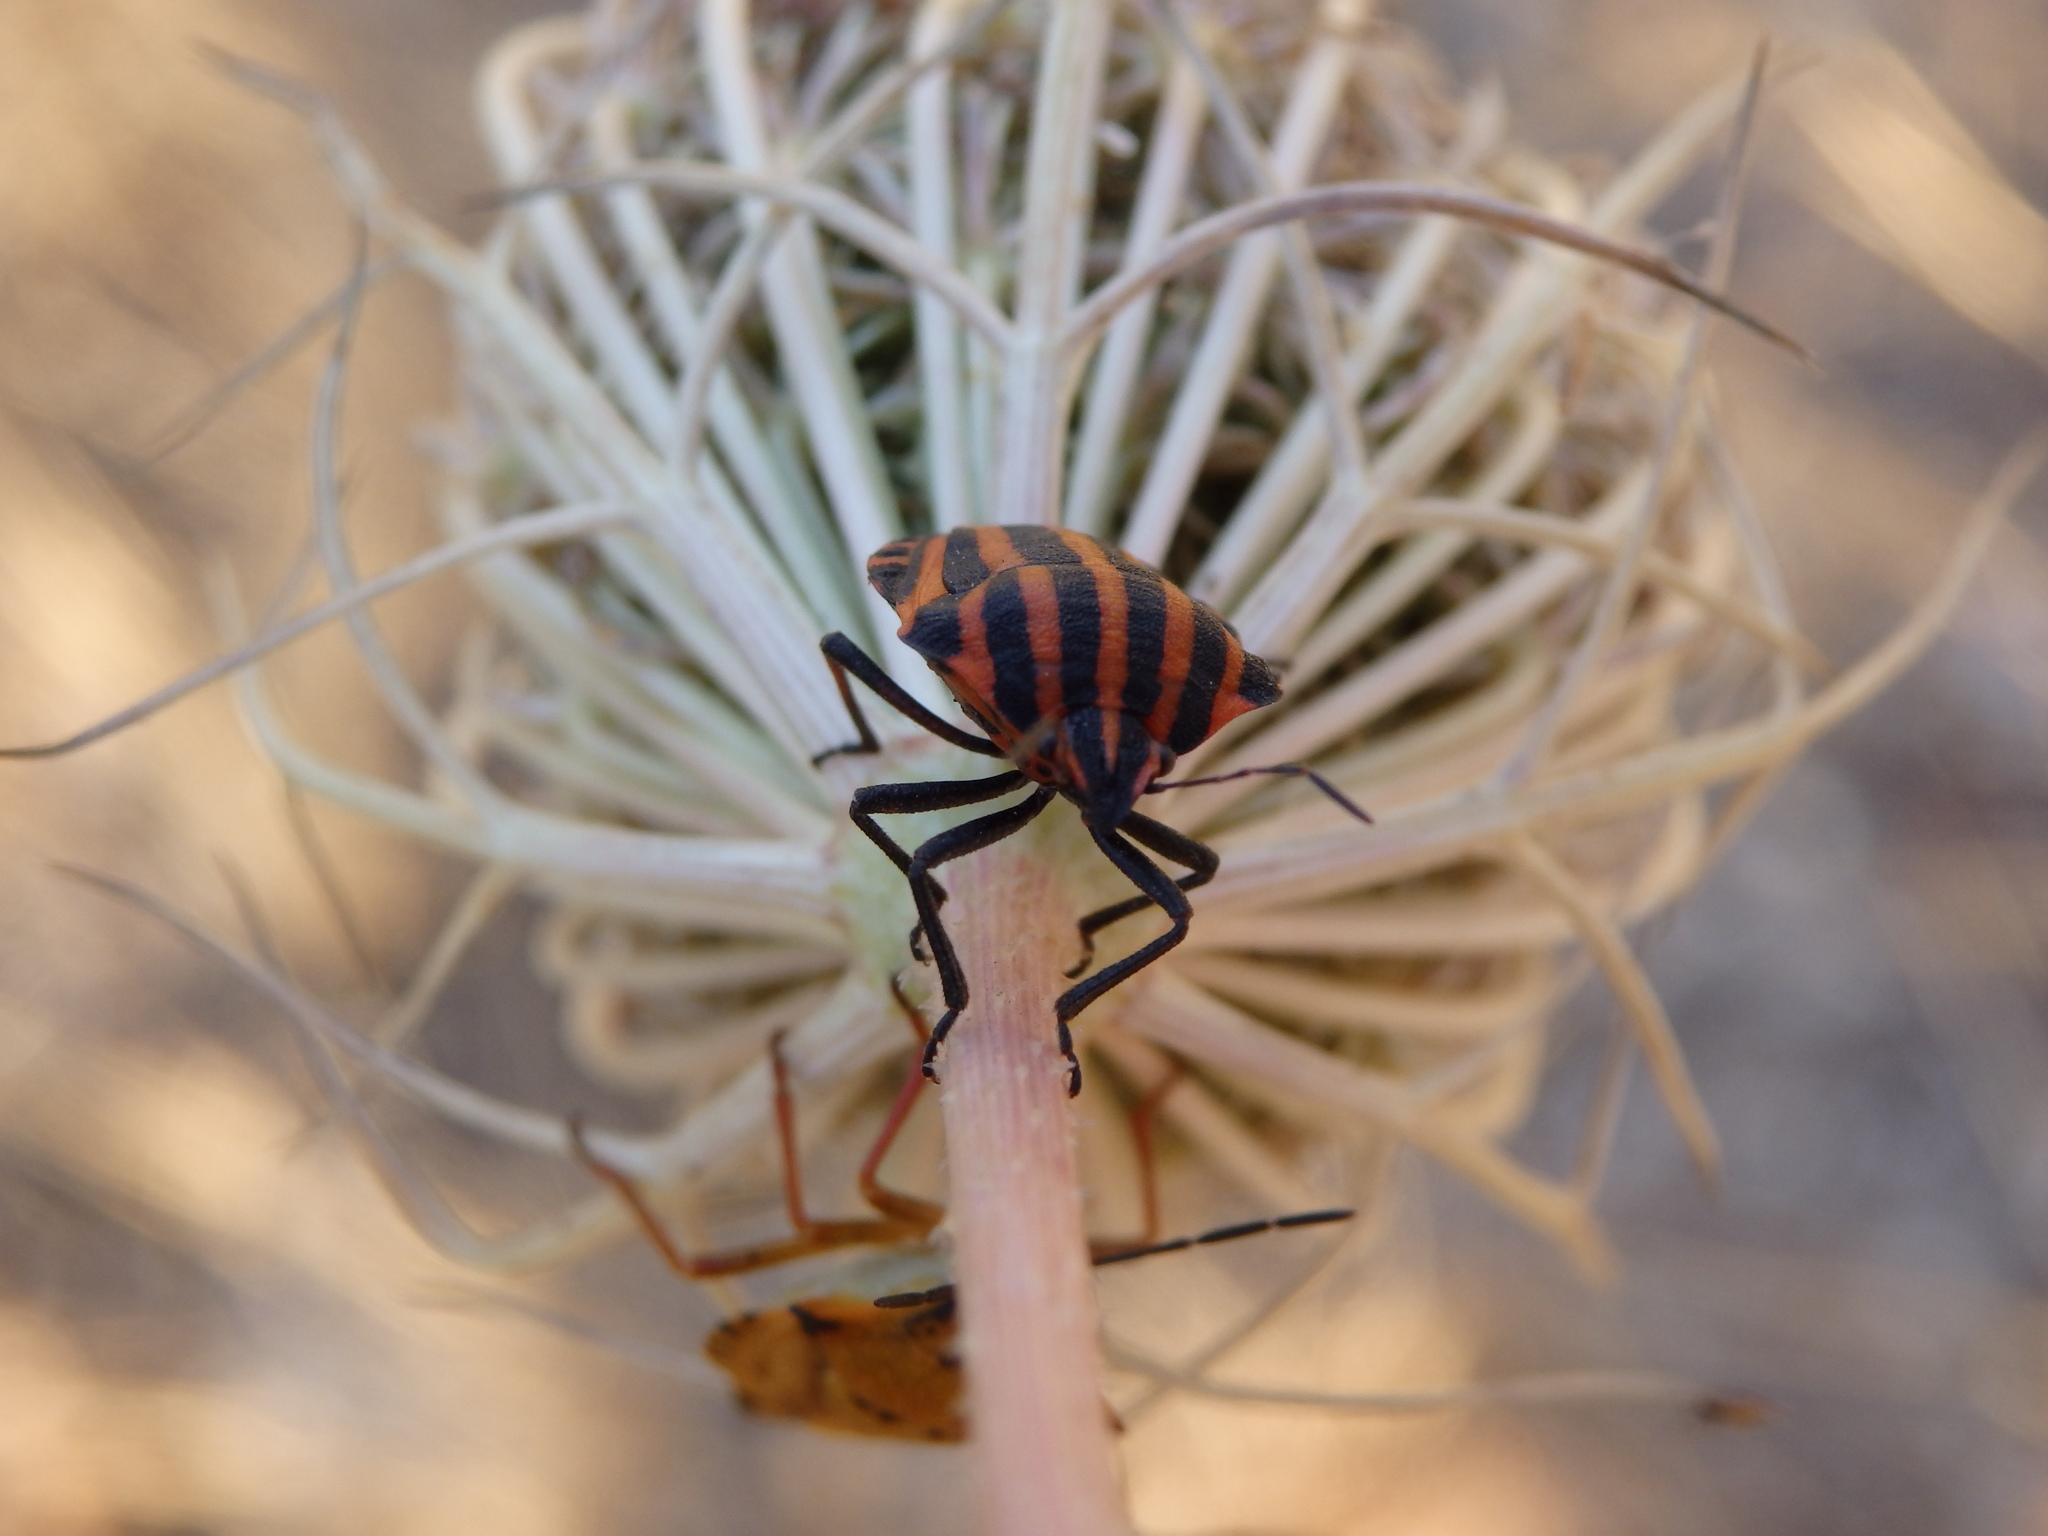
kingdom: Animalia
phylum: Arthropoda
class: Insecta
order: Hemiptera
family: Pentatomidae
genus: Graphosoma
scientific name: Graphosoma italicum
